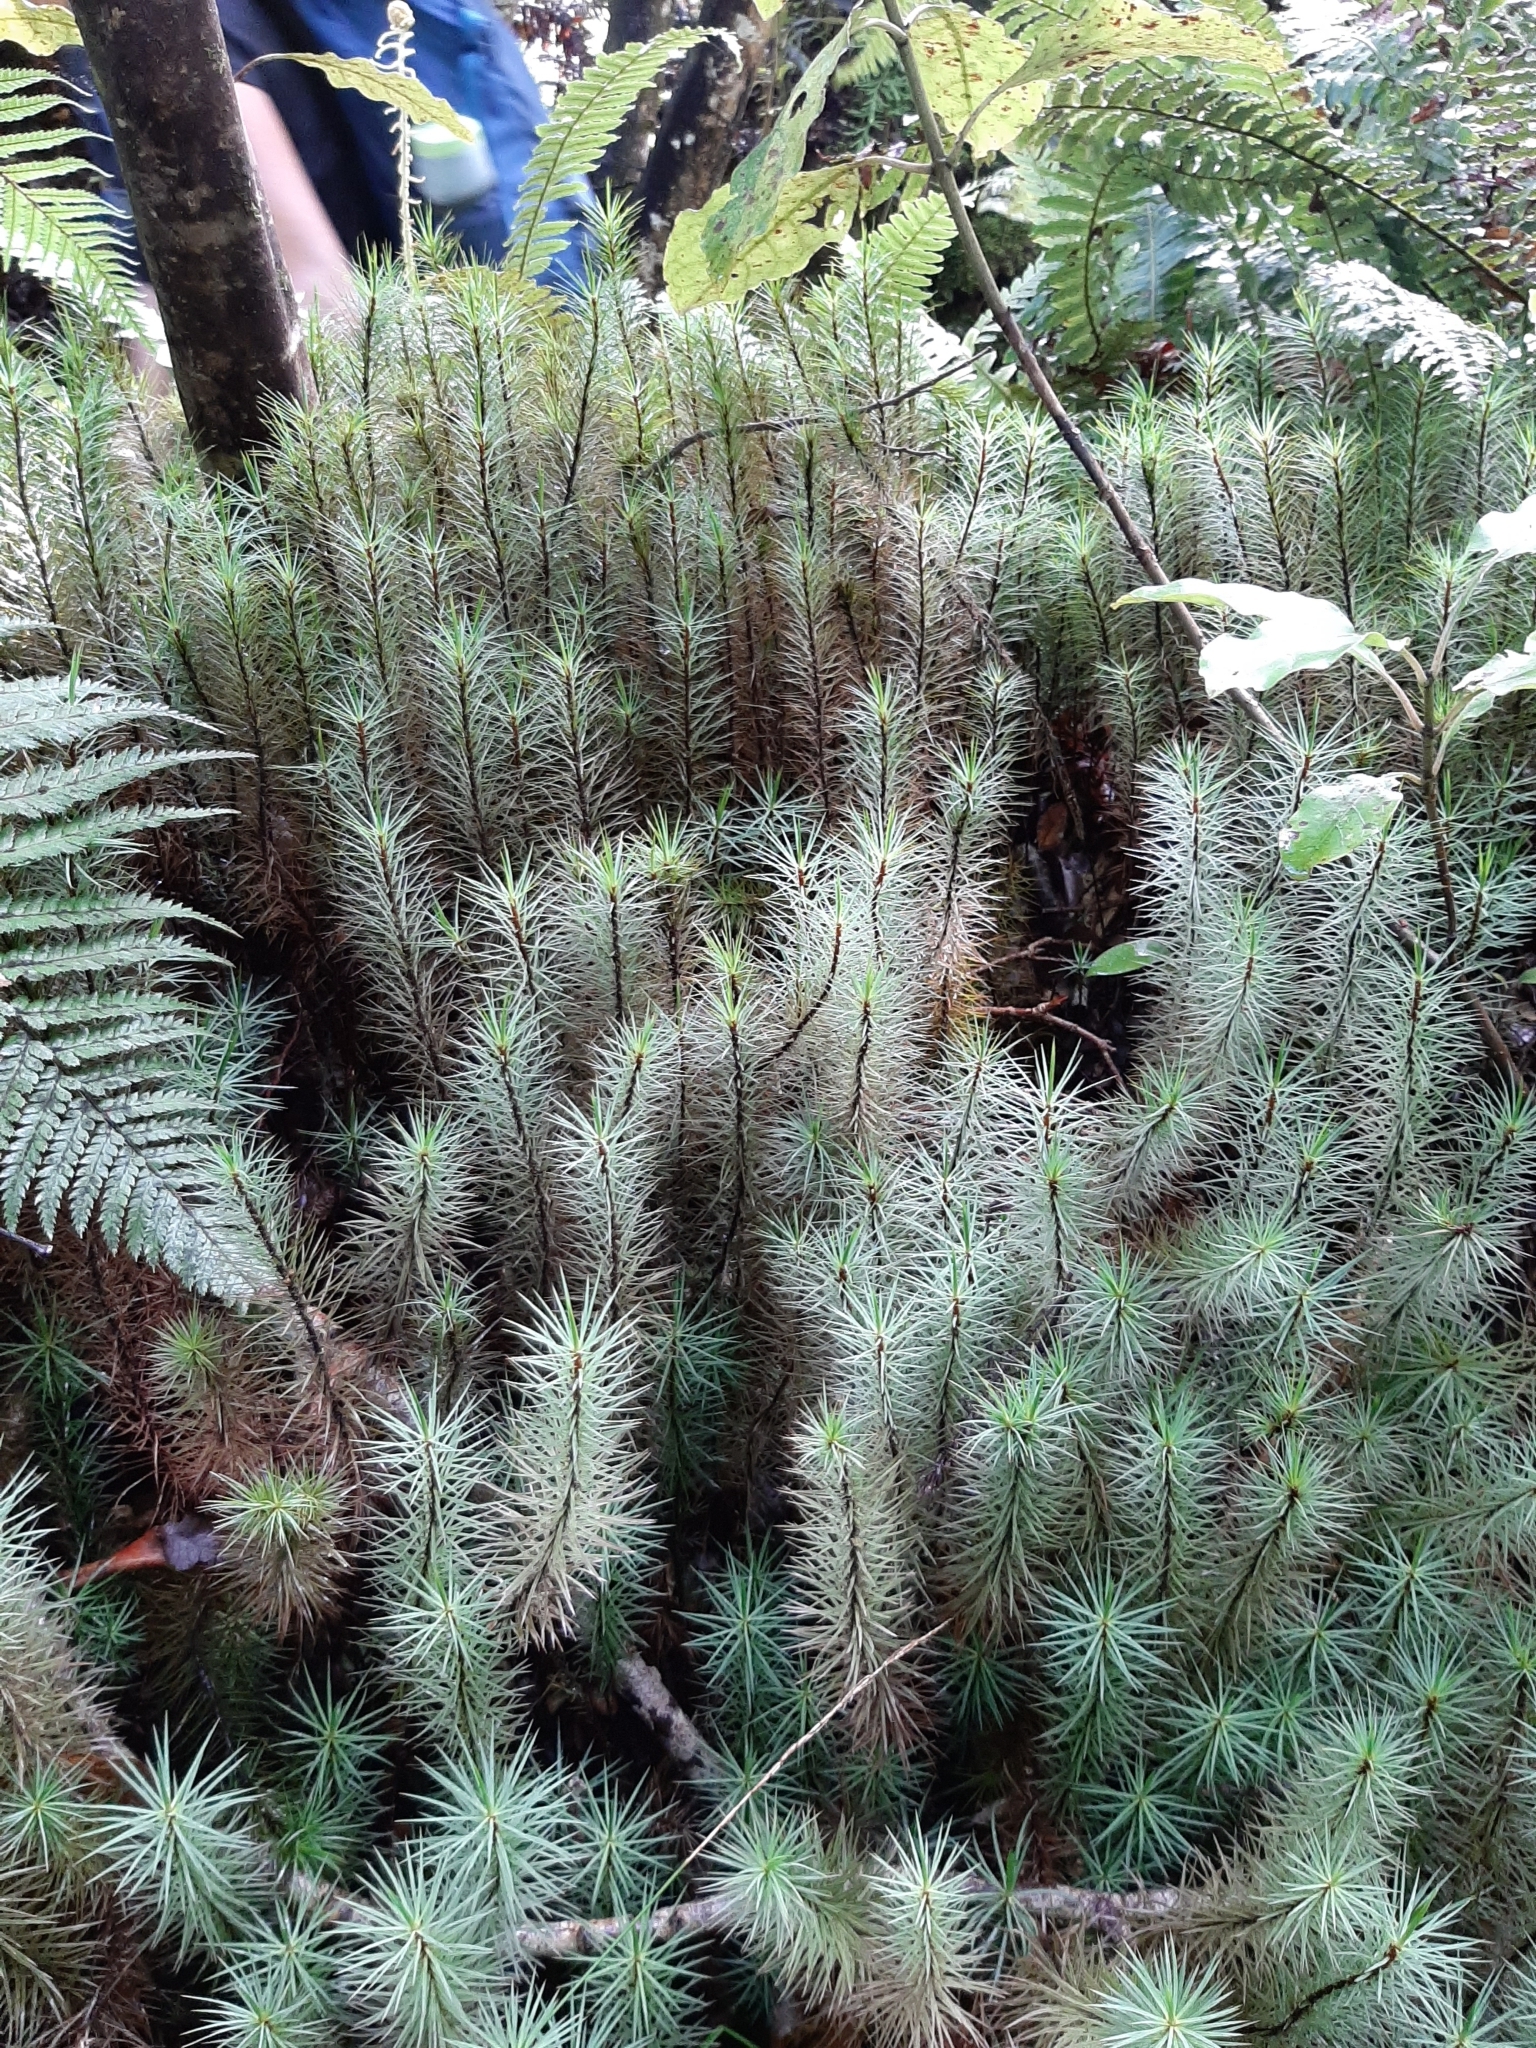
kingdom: Plantae
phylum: Bryophyta
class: Polytrichopsida
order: Polytrichales
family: Polytrichaceae
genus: Dawsonia
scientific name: Dawsonia superba
